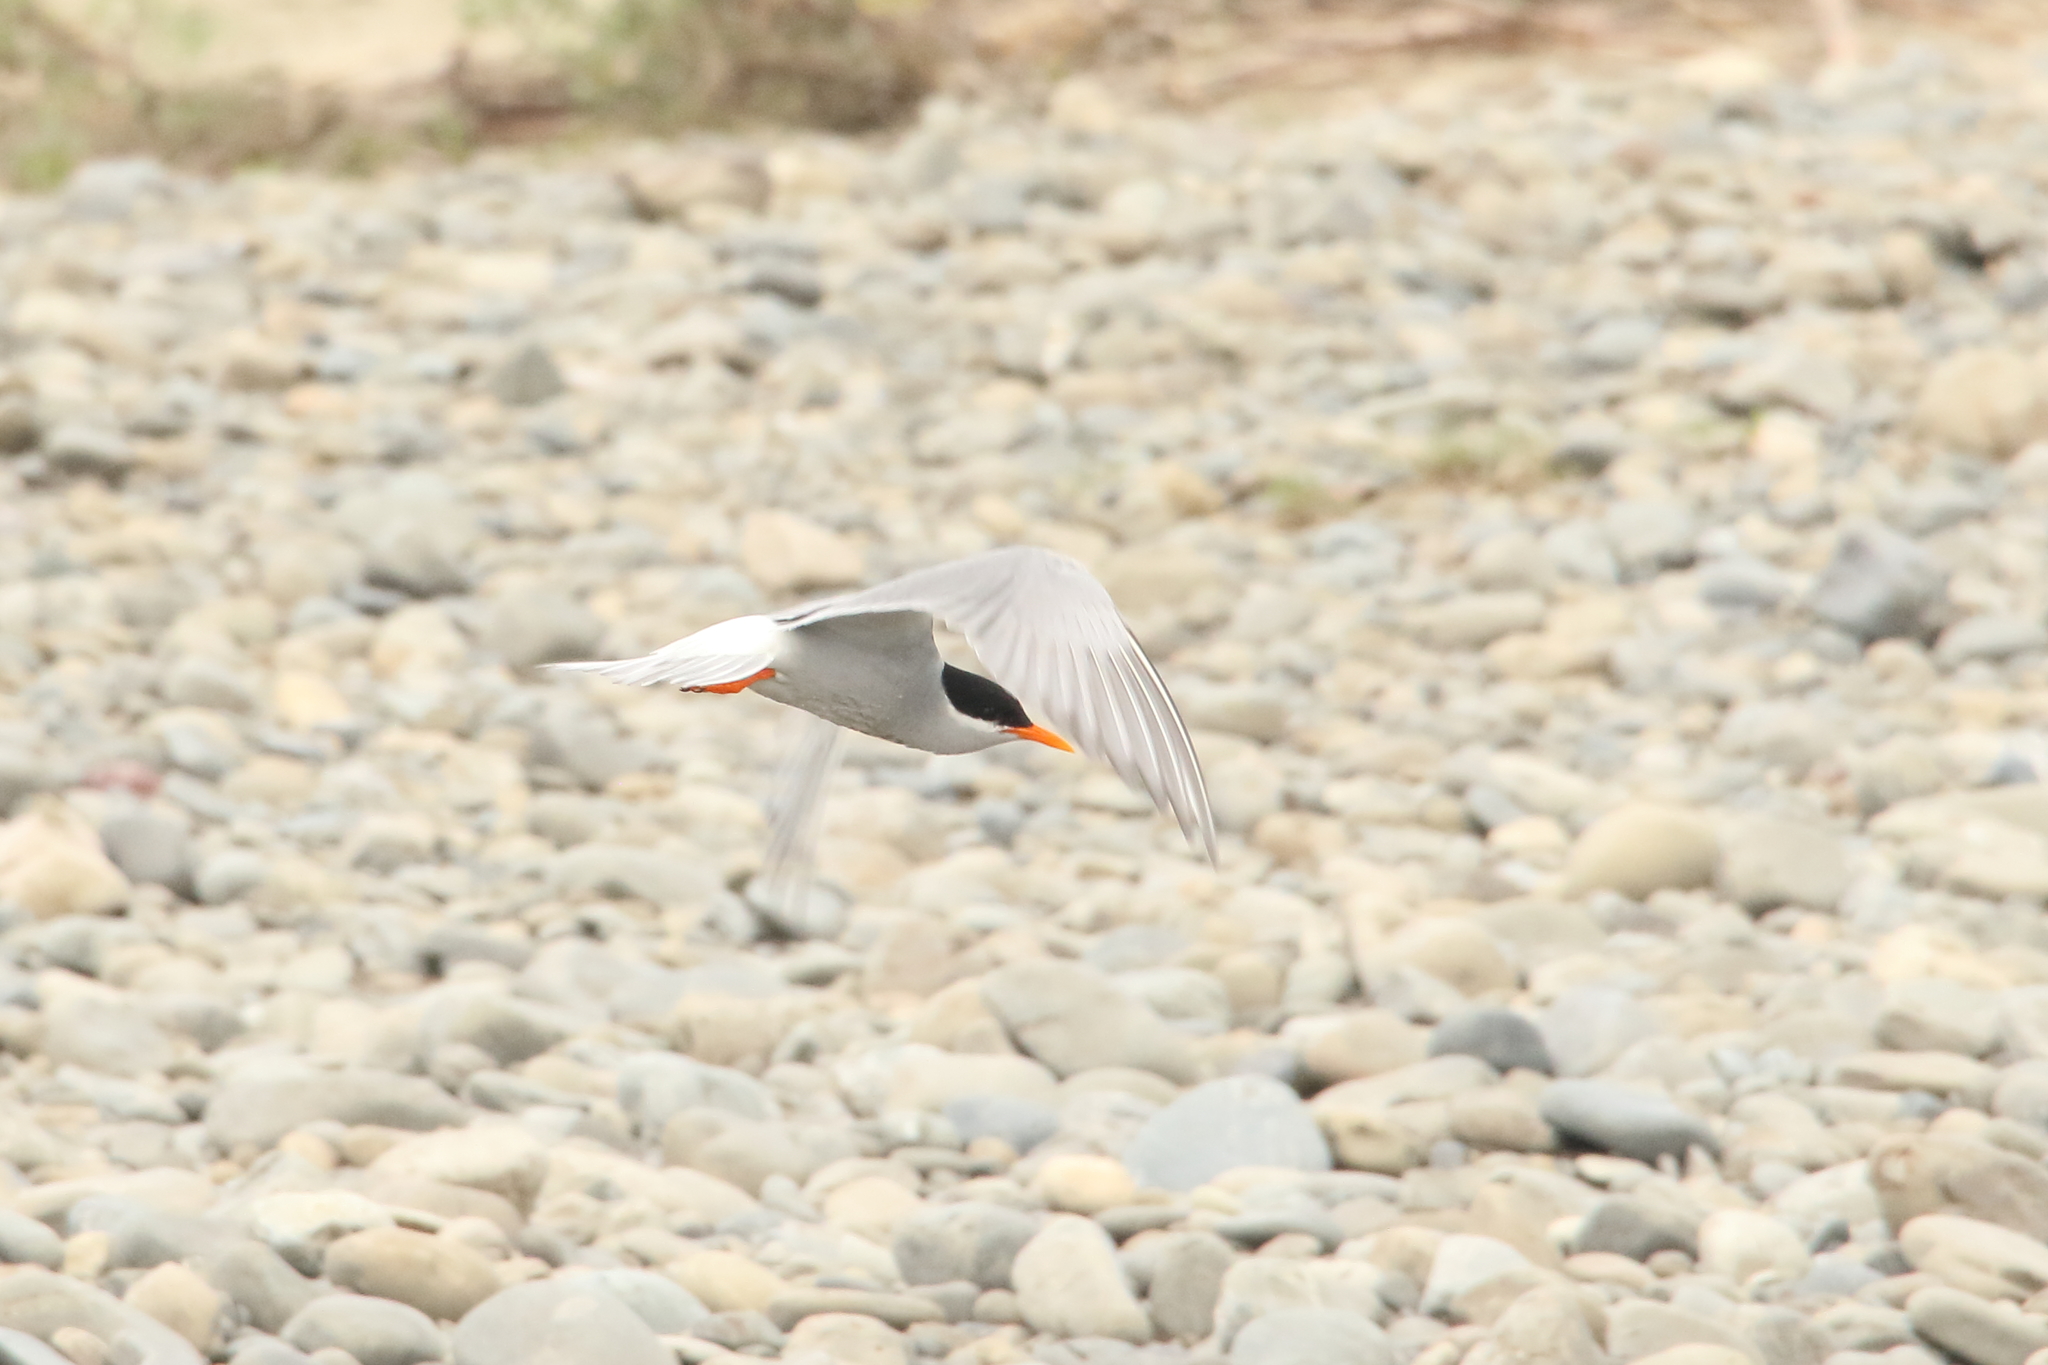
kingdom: Animalia
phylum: Chordata
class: Aves
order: Charadriiformes
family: Laridae
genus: Chlidonias
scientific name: Chlidonias albostriatus
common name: Black-fronted tern
